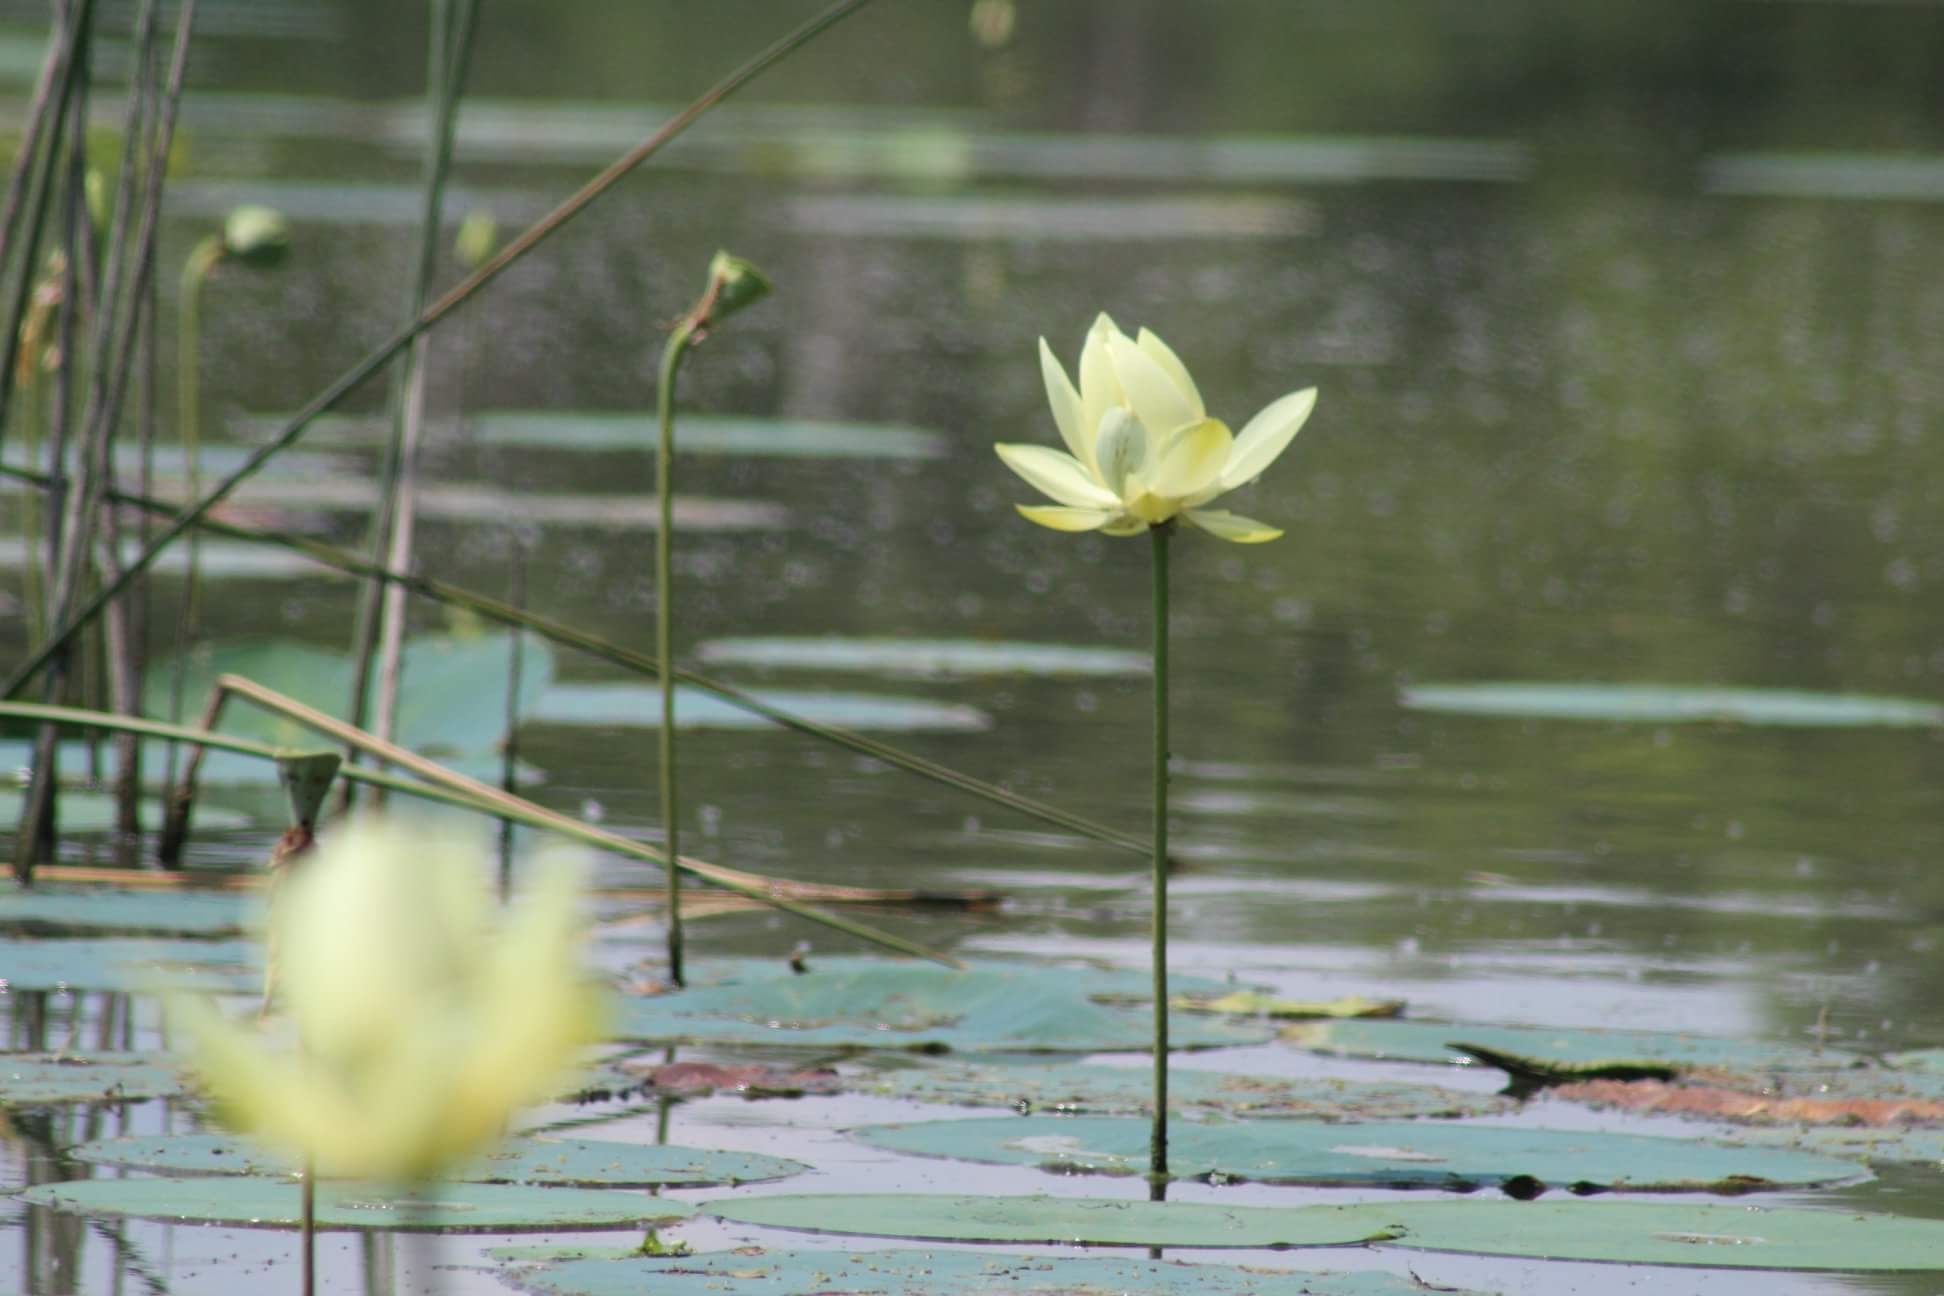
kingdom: Plantae
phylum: Tracheophyta
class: Magnoliopsida
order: Proteales
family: Nelumbonaceae
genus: Nelumbo
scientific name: Nelumbo lutea
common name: American lotus
